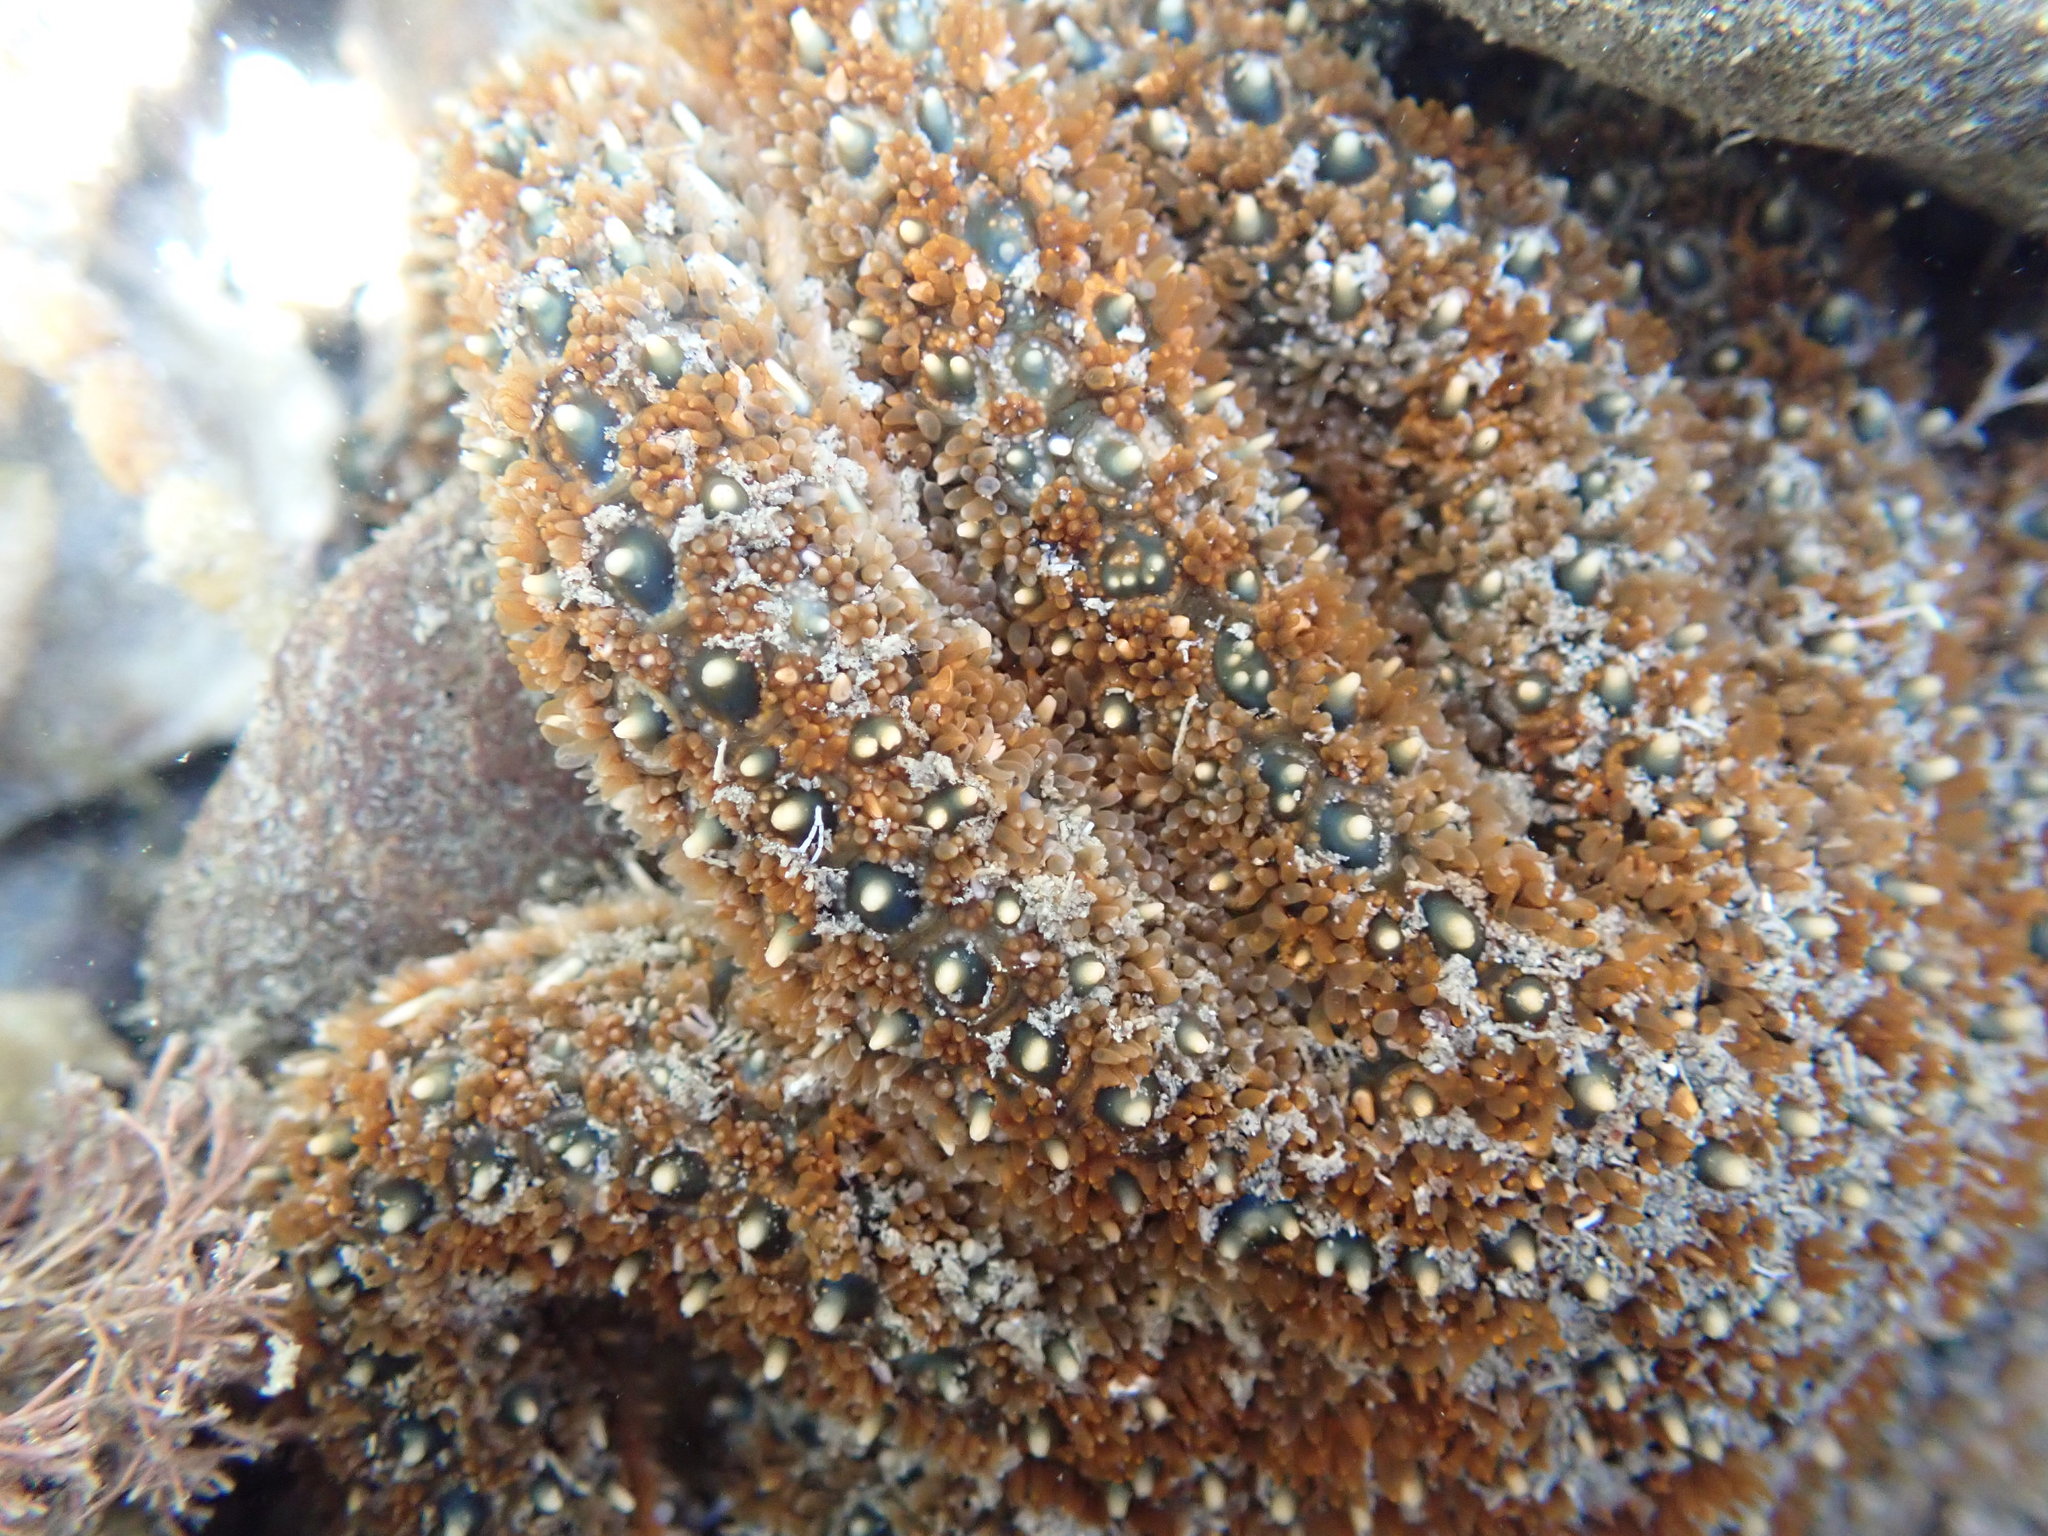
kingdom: Animalia
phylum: Echinodermata
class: Asteroidea
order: Forcipulatida
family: Asteriidae
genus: Coscinasterias
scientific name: Coscinasterias muricata
